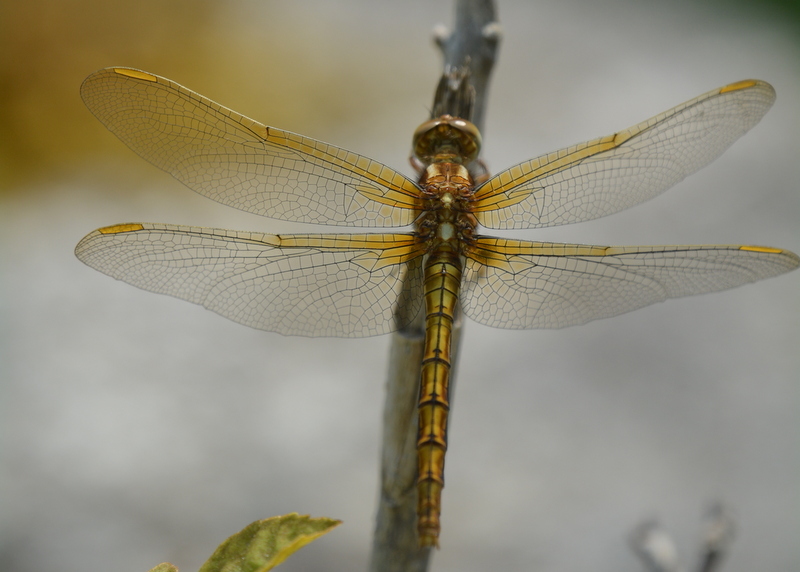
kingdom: Animalia
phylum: Arthropoda
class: Insecta
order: Odonata
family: Libellulidae
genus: Orthetrum
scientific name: Orthetrum coerulescens
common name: Keeled skimmer
